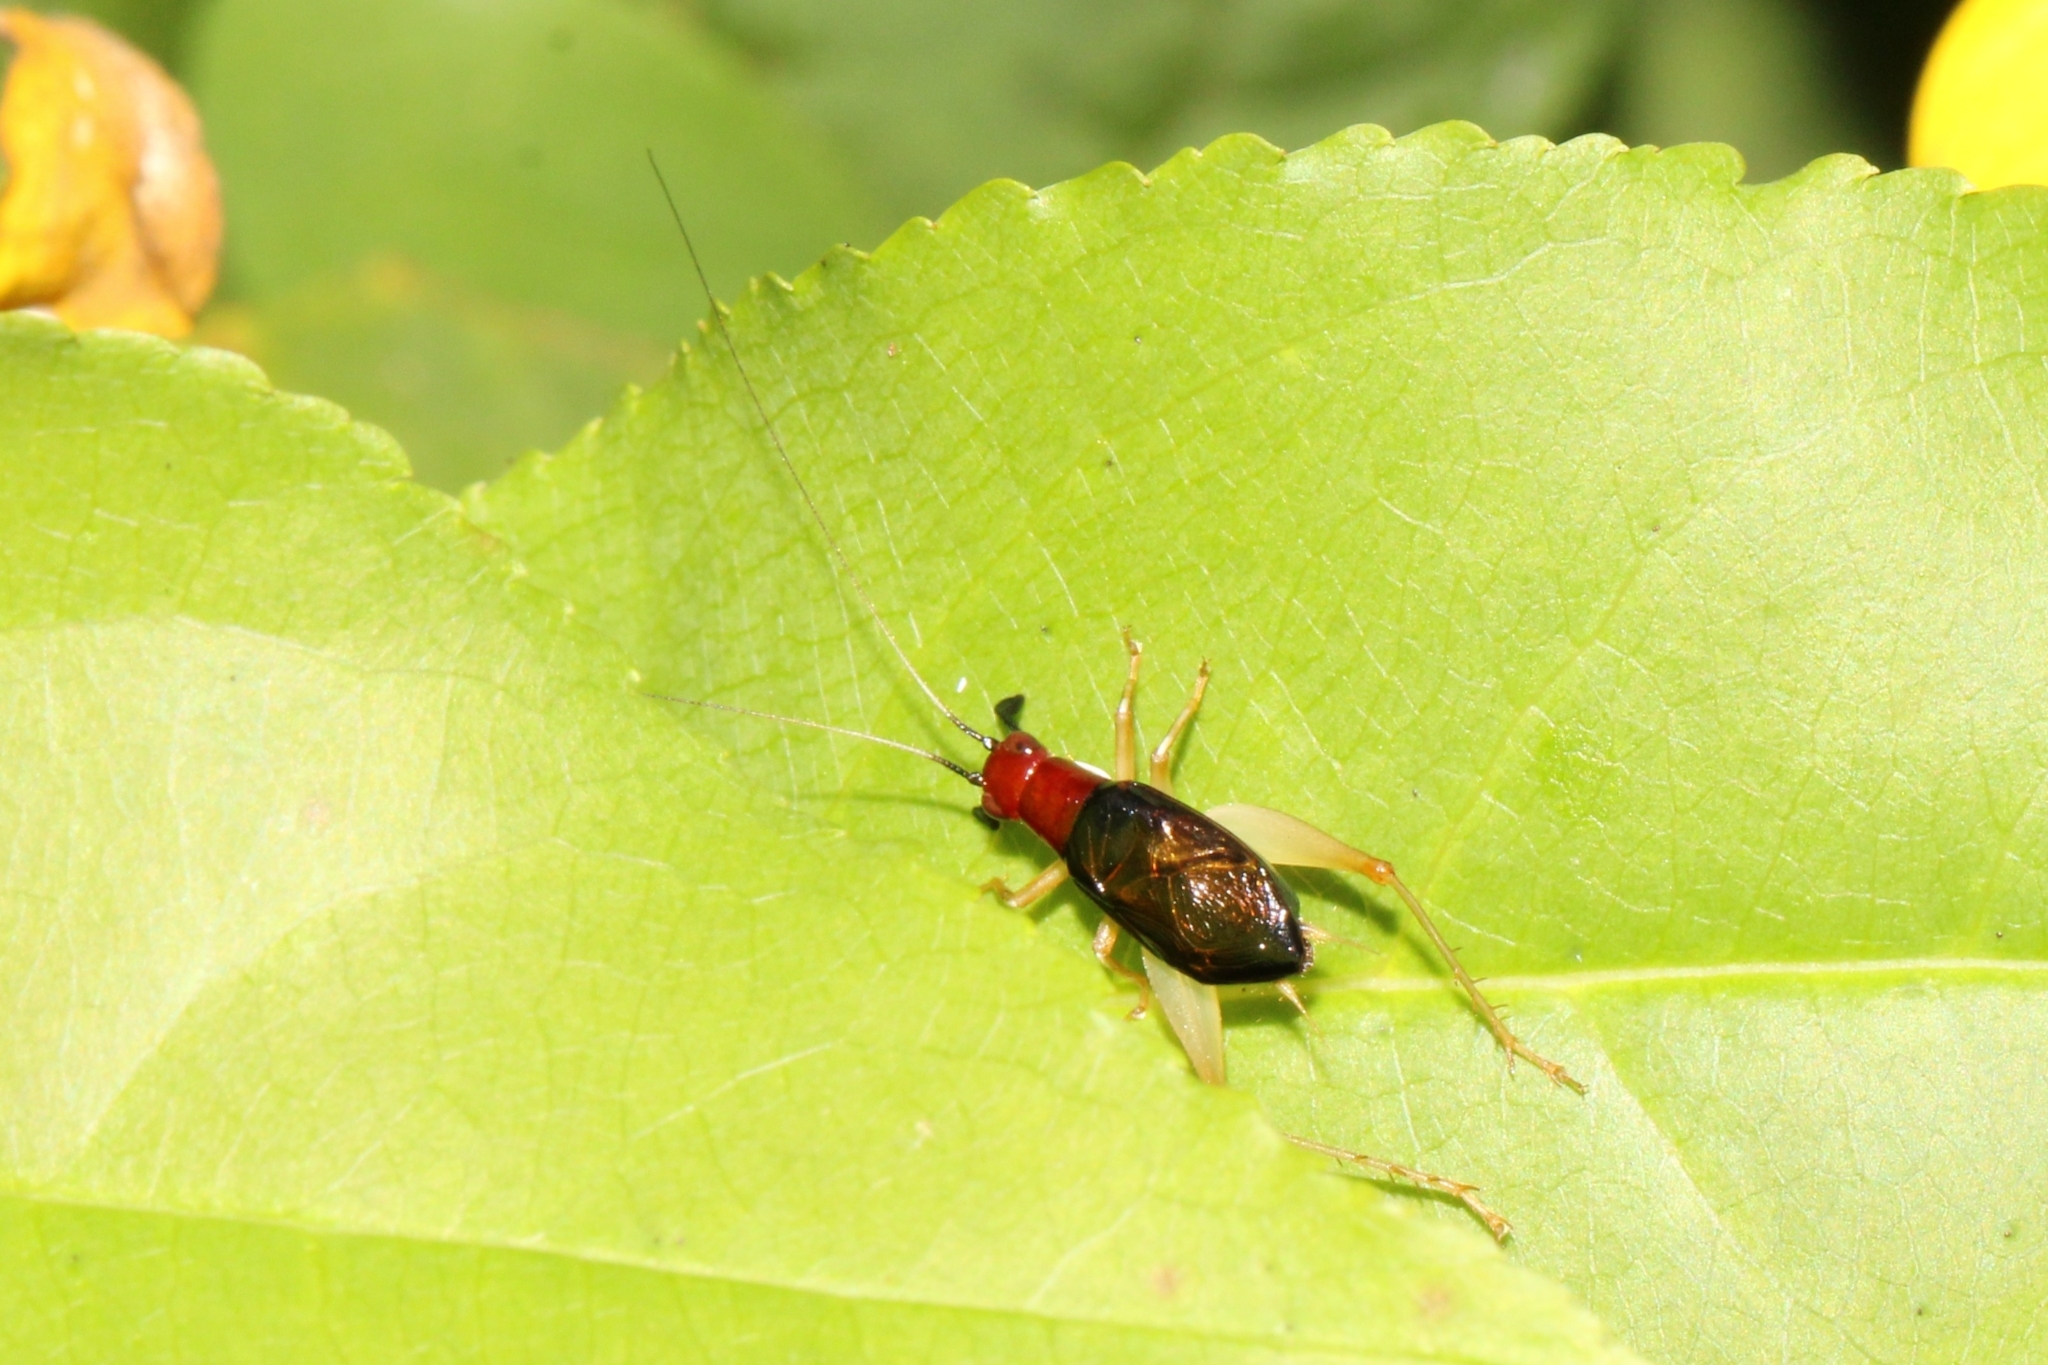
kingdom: Animalia
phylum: Arthropoda
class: Insecta
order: Orthoptera
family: Trigonidiidae
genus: Phyllopalpus
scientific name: Phyllopalpus pulchellus
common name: Handsome trig
